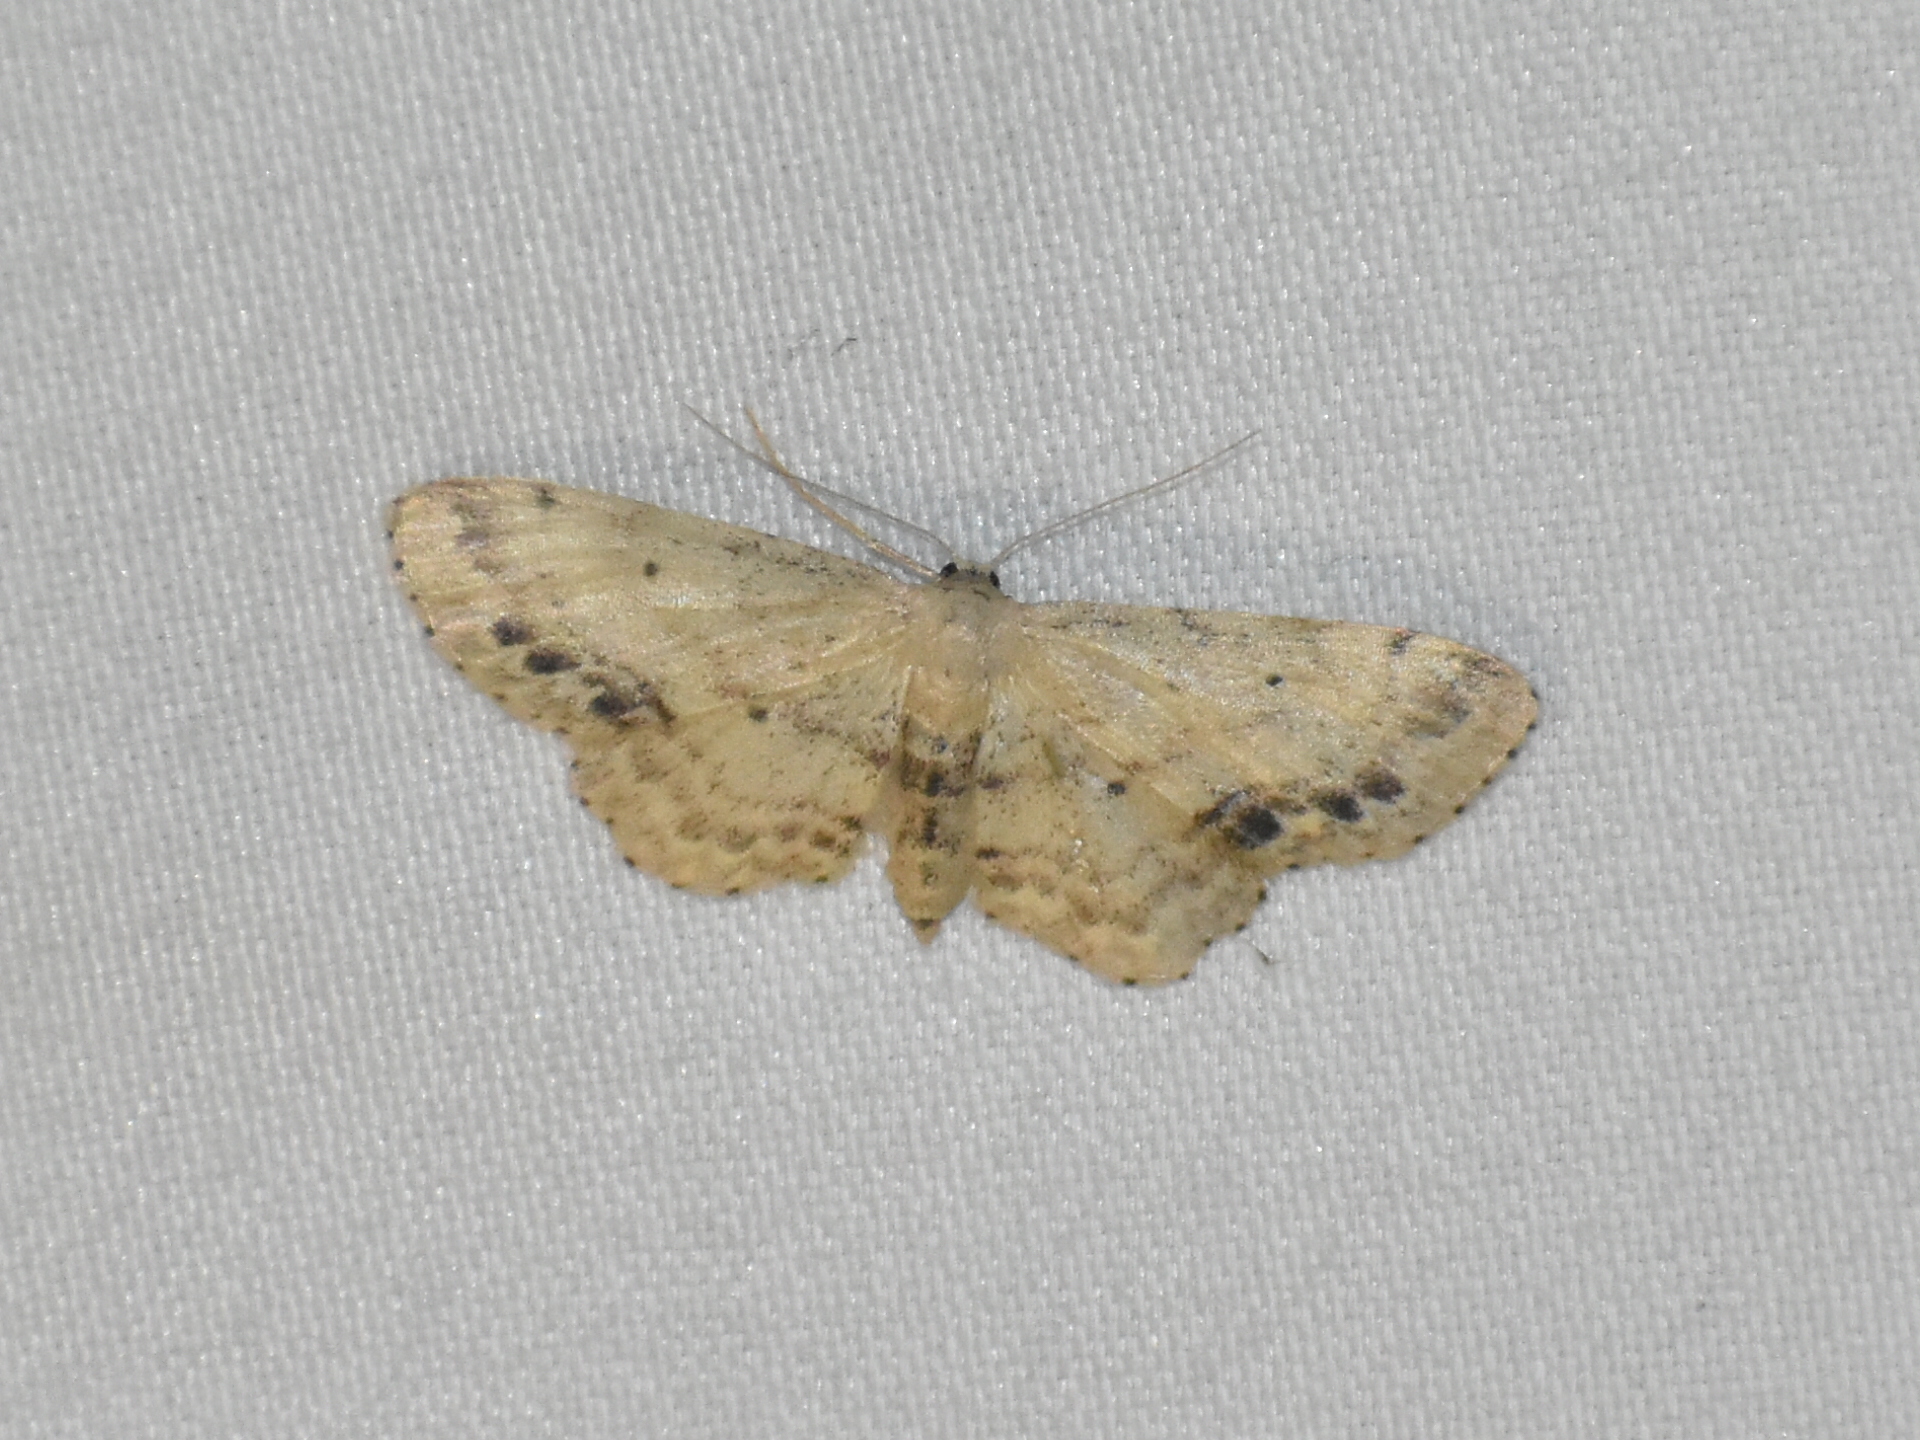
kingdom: Animalia
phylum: Arthropoda
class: Insecta
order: Lepidoptera
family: Geometridae
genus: Idaea
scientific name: Idaea dimidiata
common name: Single-dotted wave
